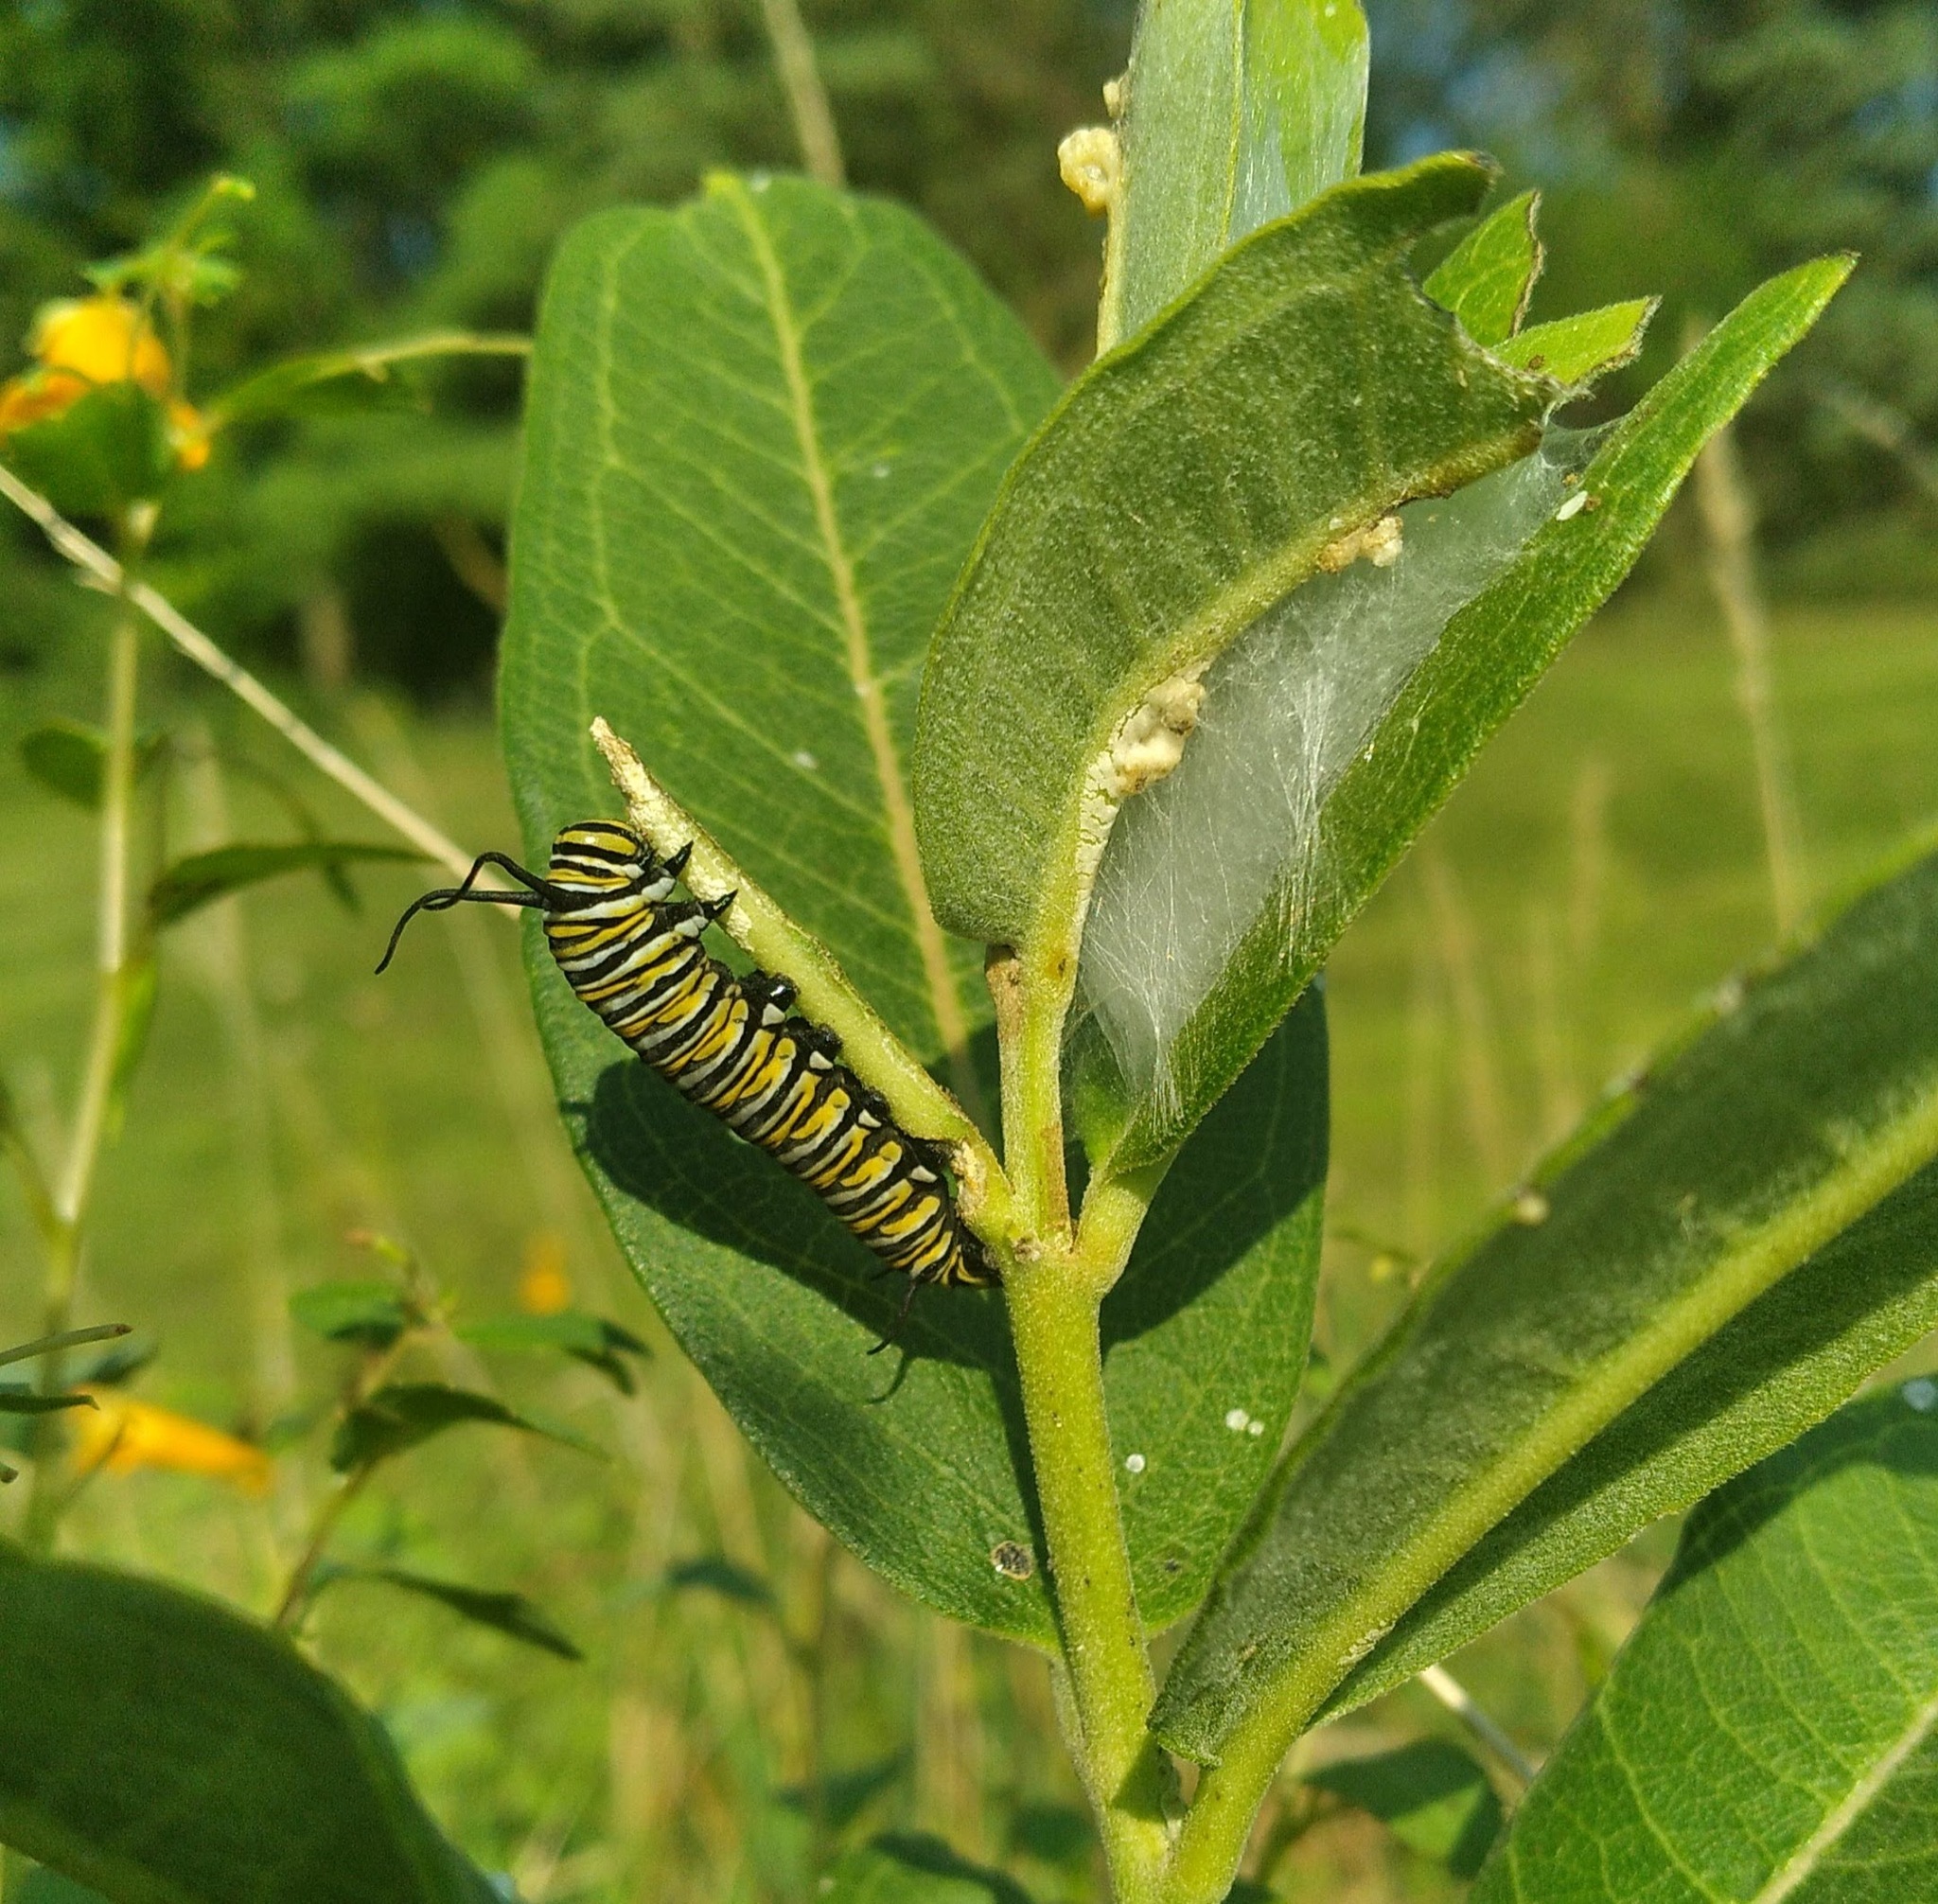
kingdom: Animalia
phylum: Arthropoda
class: Insecta
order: Lepidoptera
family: Nymphalidae
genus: Danaus
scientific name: Danaus plexippus
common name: Monarch
